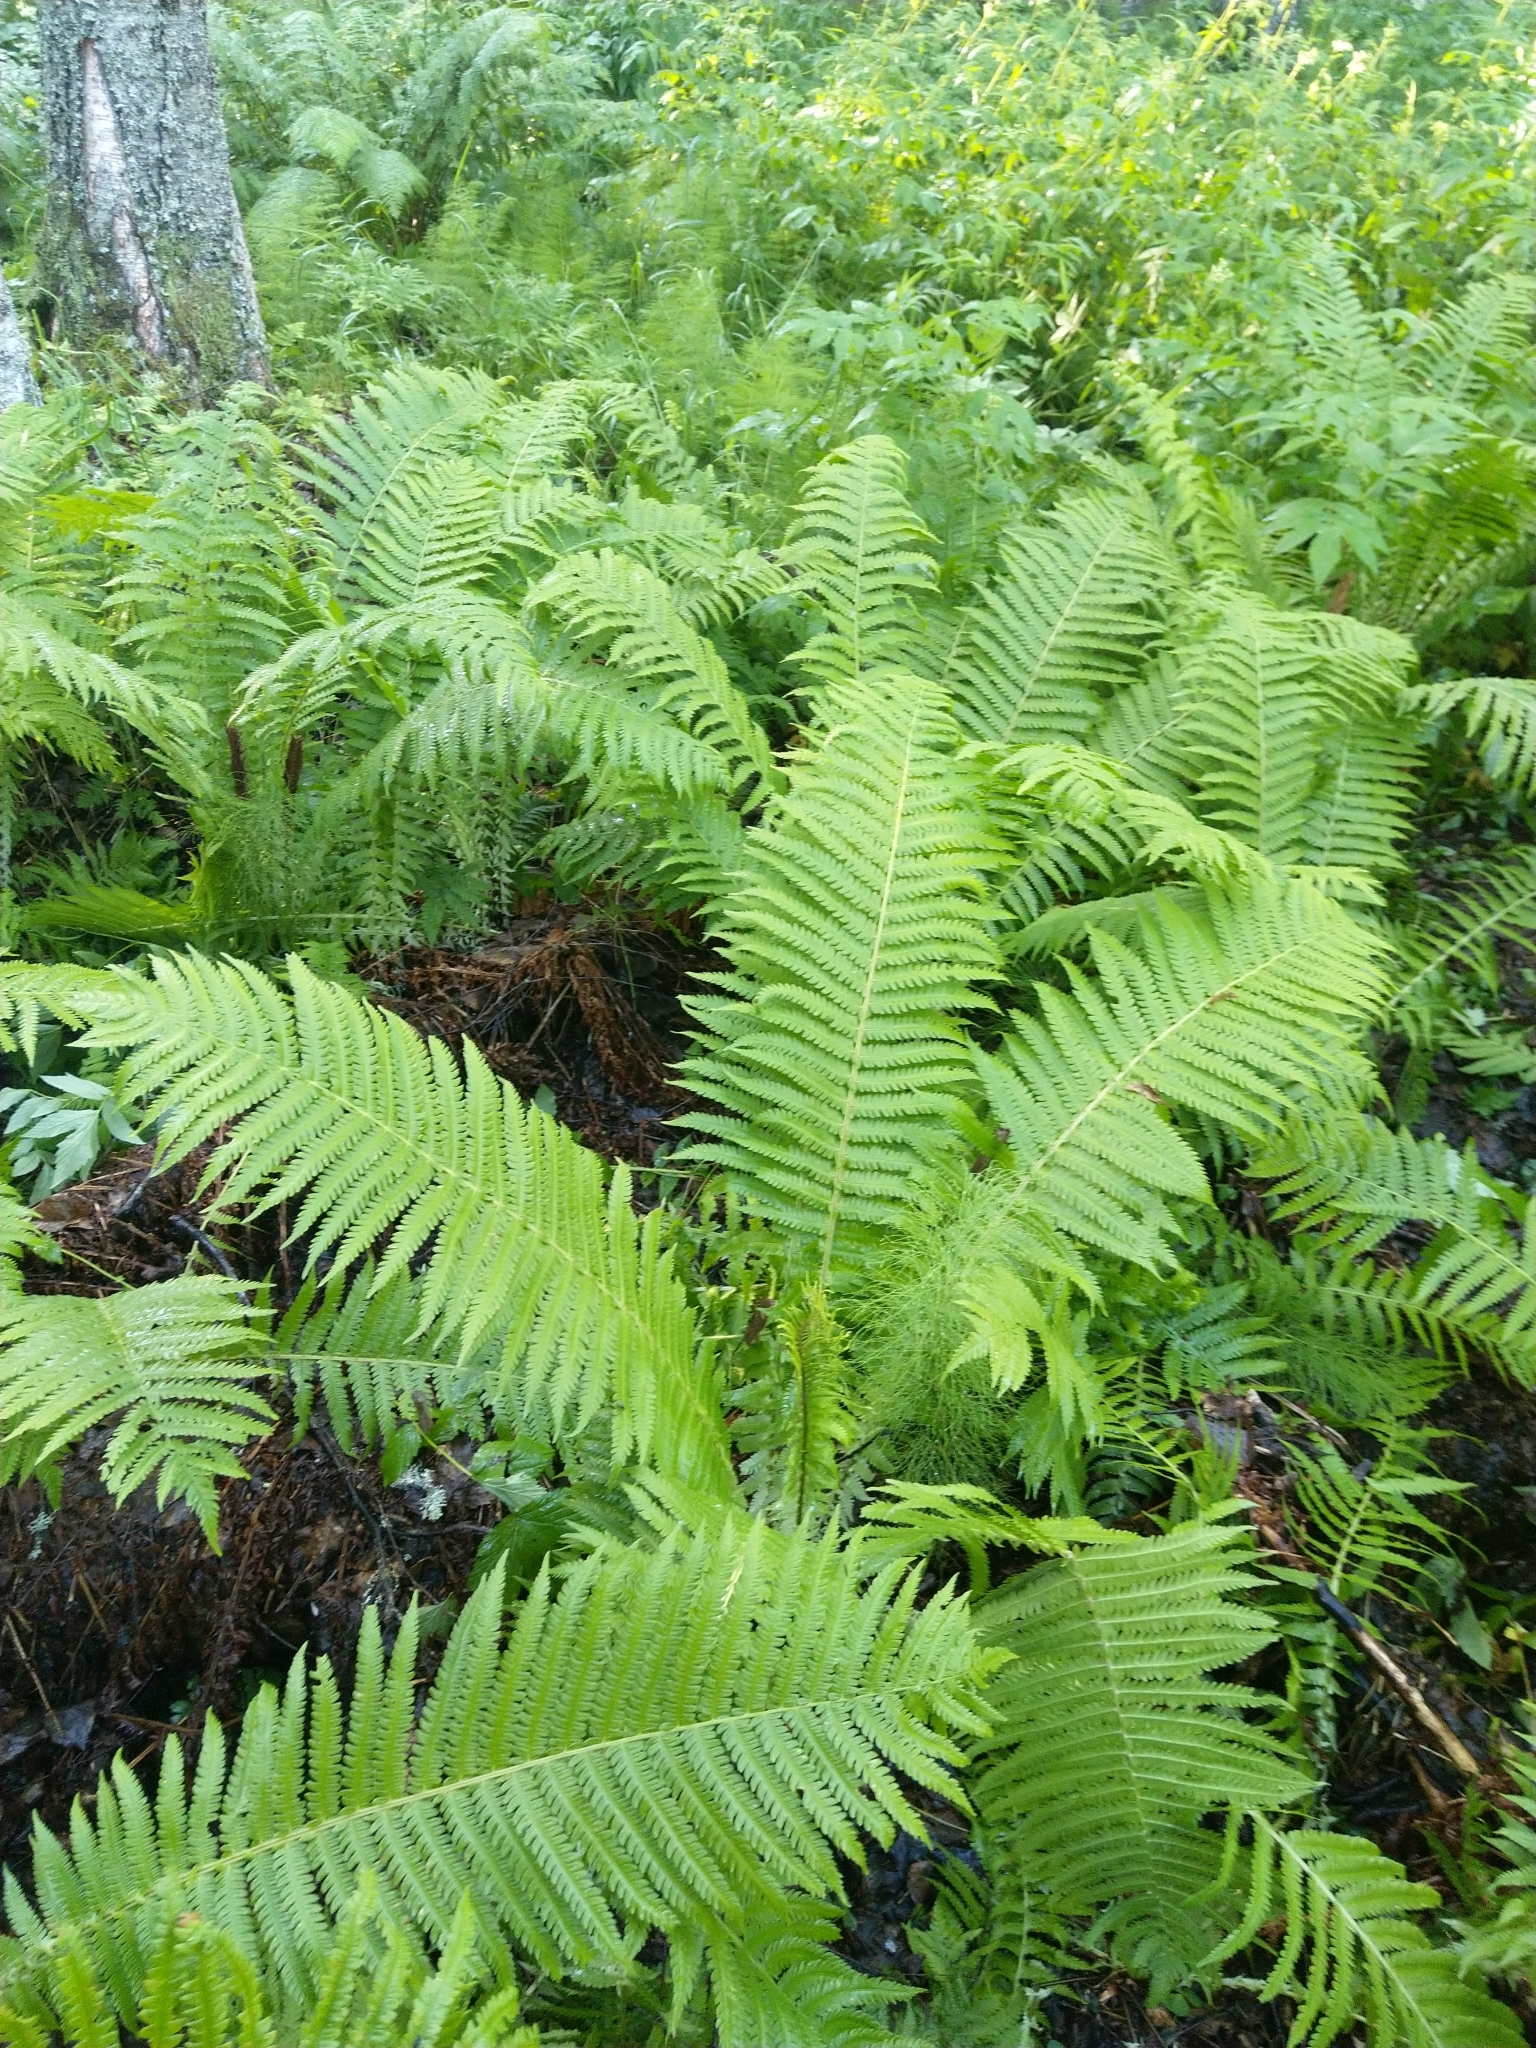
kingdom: Plantae
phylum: Tracheophyta
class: Polypodiopsida
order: Polypodiales
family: Onocleaceae
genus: Matteuccia
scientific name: Matteuccia struthiopteris
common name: Ostrich fern
